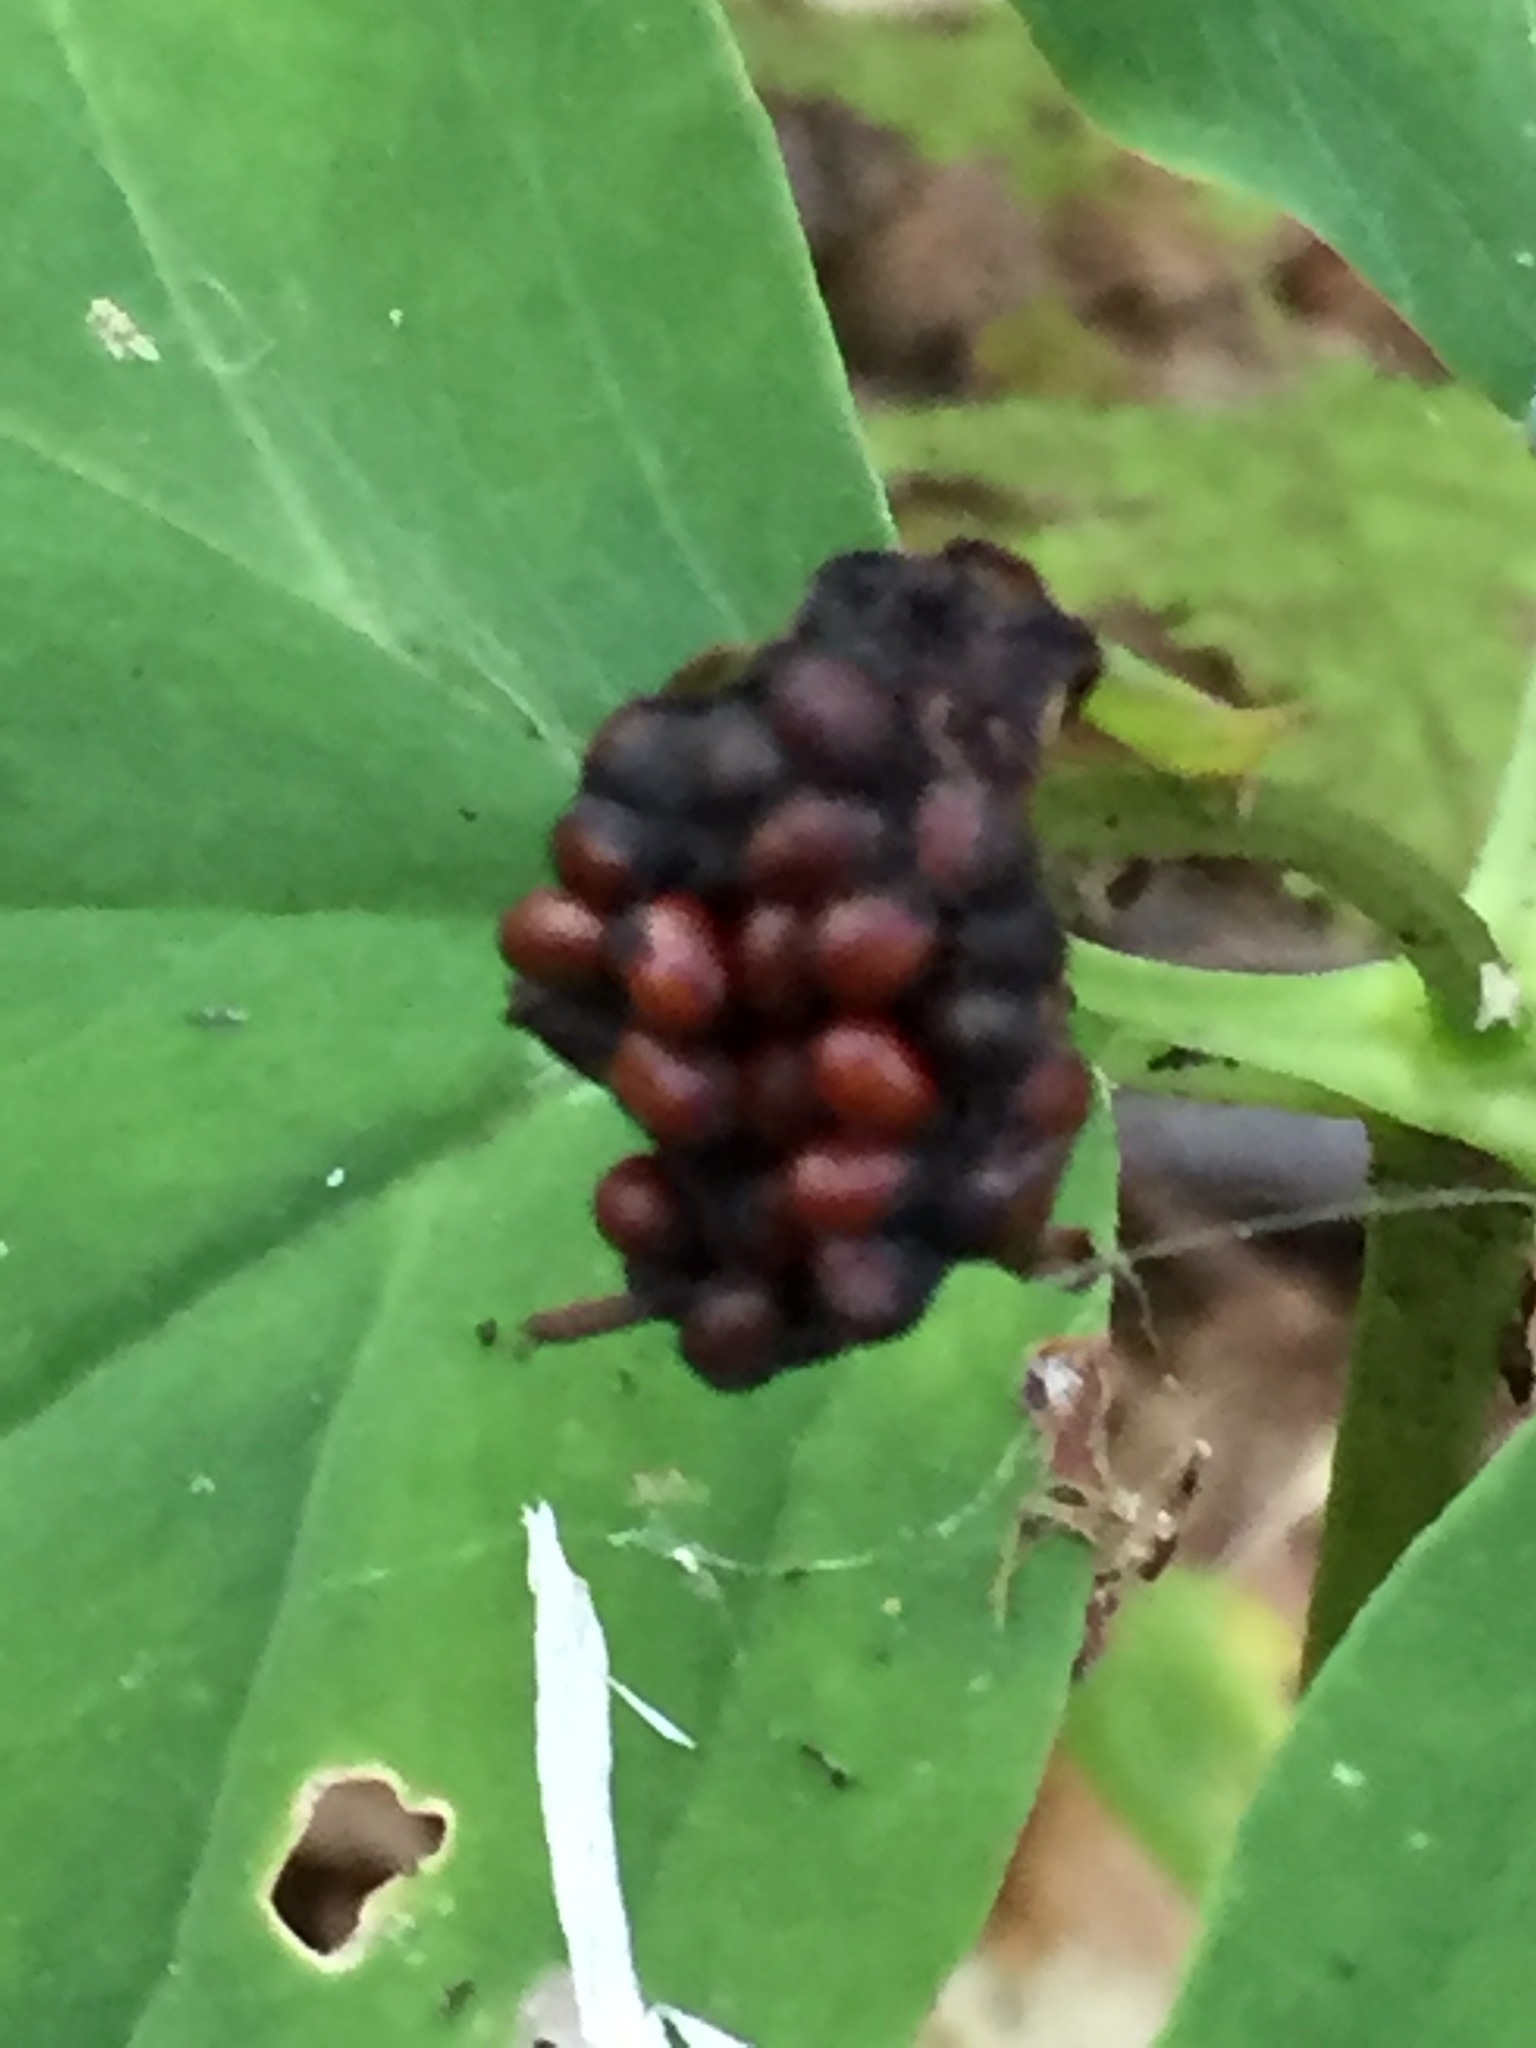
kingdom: Plantae
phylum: Tracheophyta
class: Liliopsida
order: Liliales
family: Melanthiaceae
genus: Trillium
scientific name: Trillium undulatum
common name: Paint trillium
